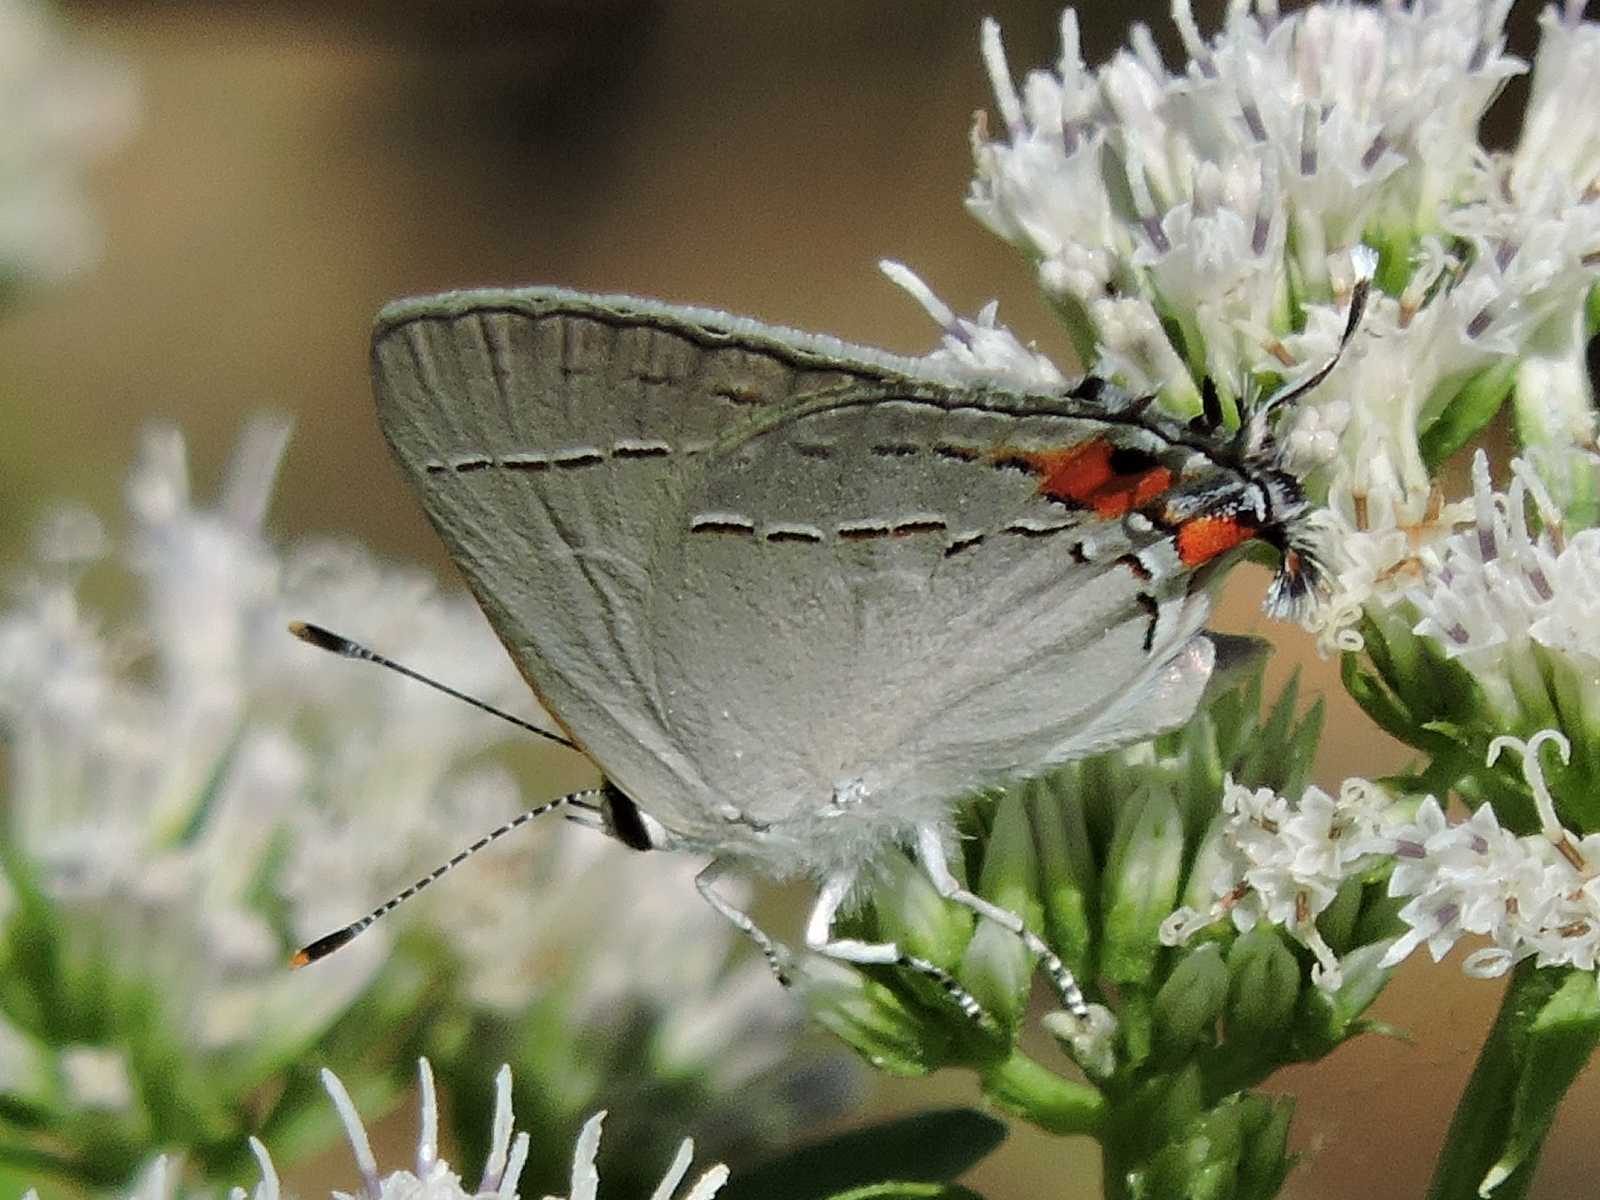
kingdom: Animalia
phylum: Arthropoda
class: Insecta
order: Lepidoptera
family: Lycaenidae
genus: Strymon
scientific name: Strymon melinus
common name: Gray hairstreak
